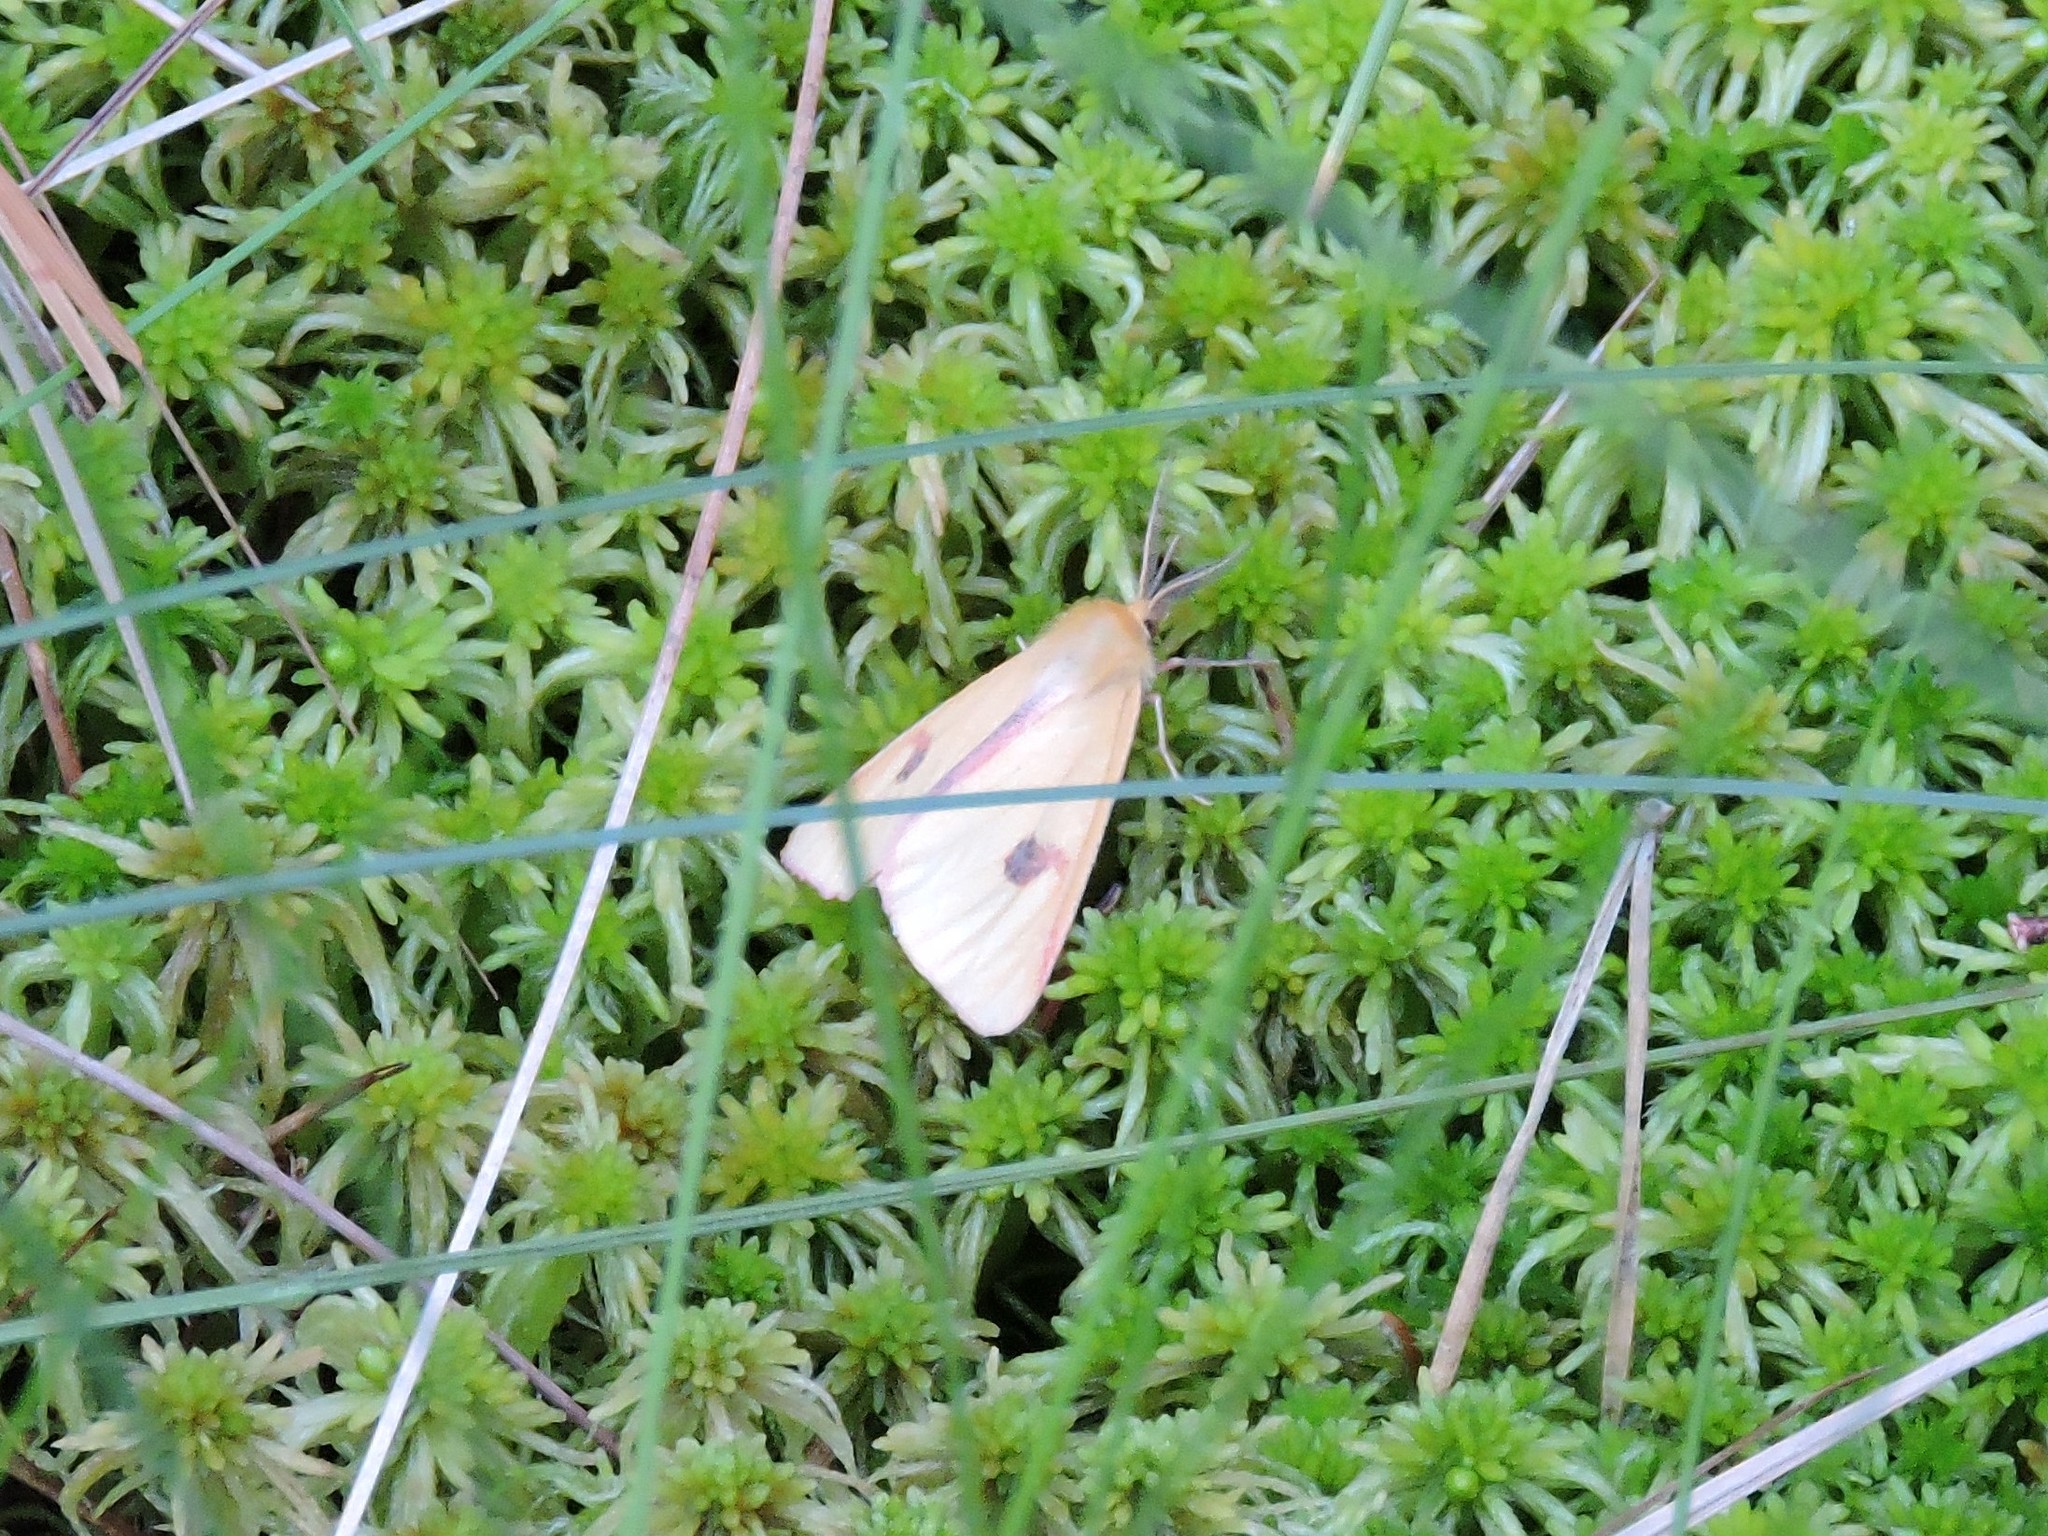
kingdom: Animalia
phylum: Arthropoda
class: Insecta
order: Lepidoptera
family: Erebidae
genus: Diacrisia
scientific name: Diacrisia sannio
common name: Clouded buff
